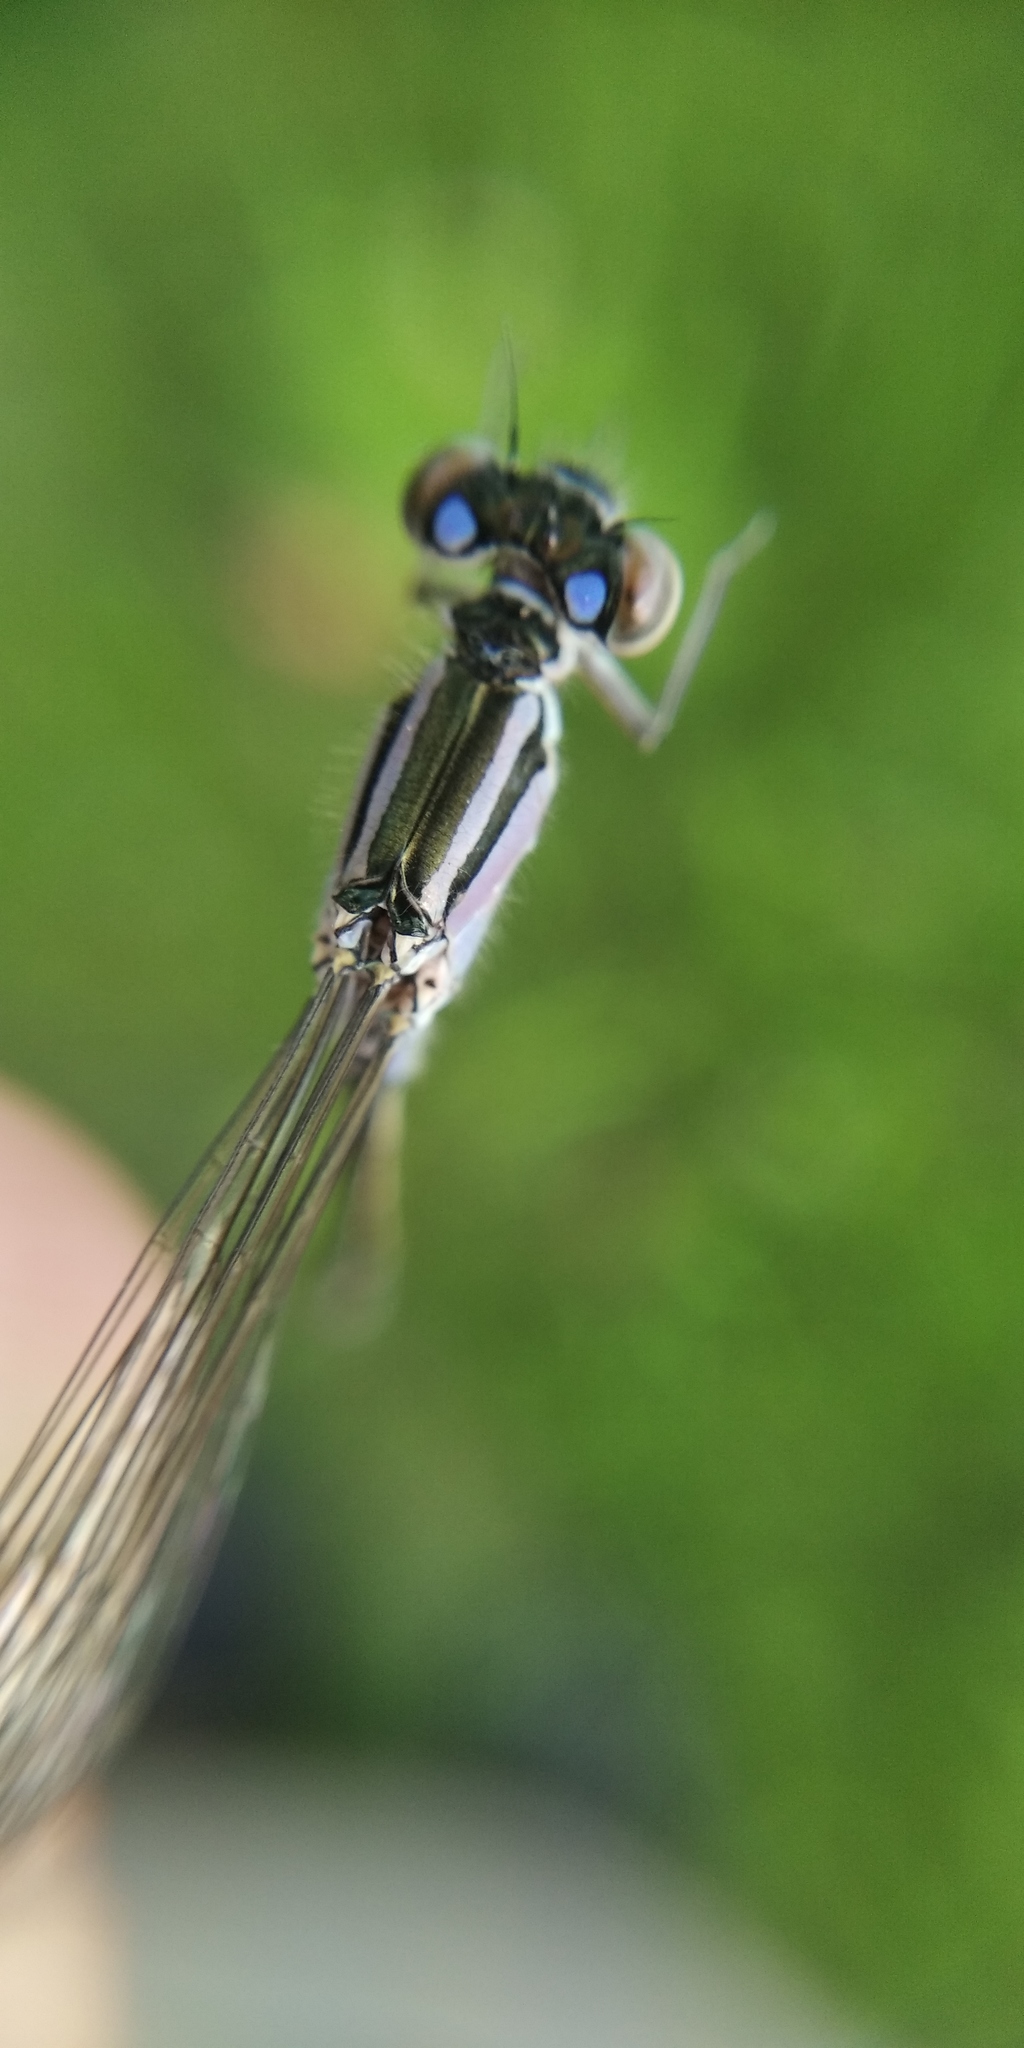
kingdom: Animalia
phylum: Arthropoda
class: Insecta
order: Odonata
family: Coenagrionidae
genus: Ischnura
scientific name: Ischnura elegans
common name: Blue-tailed damselfly
